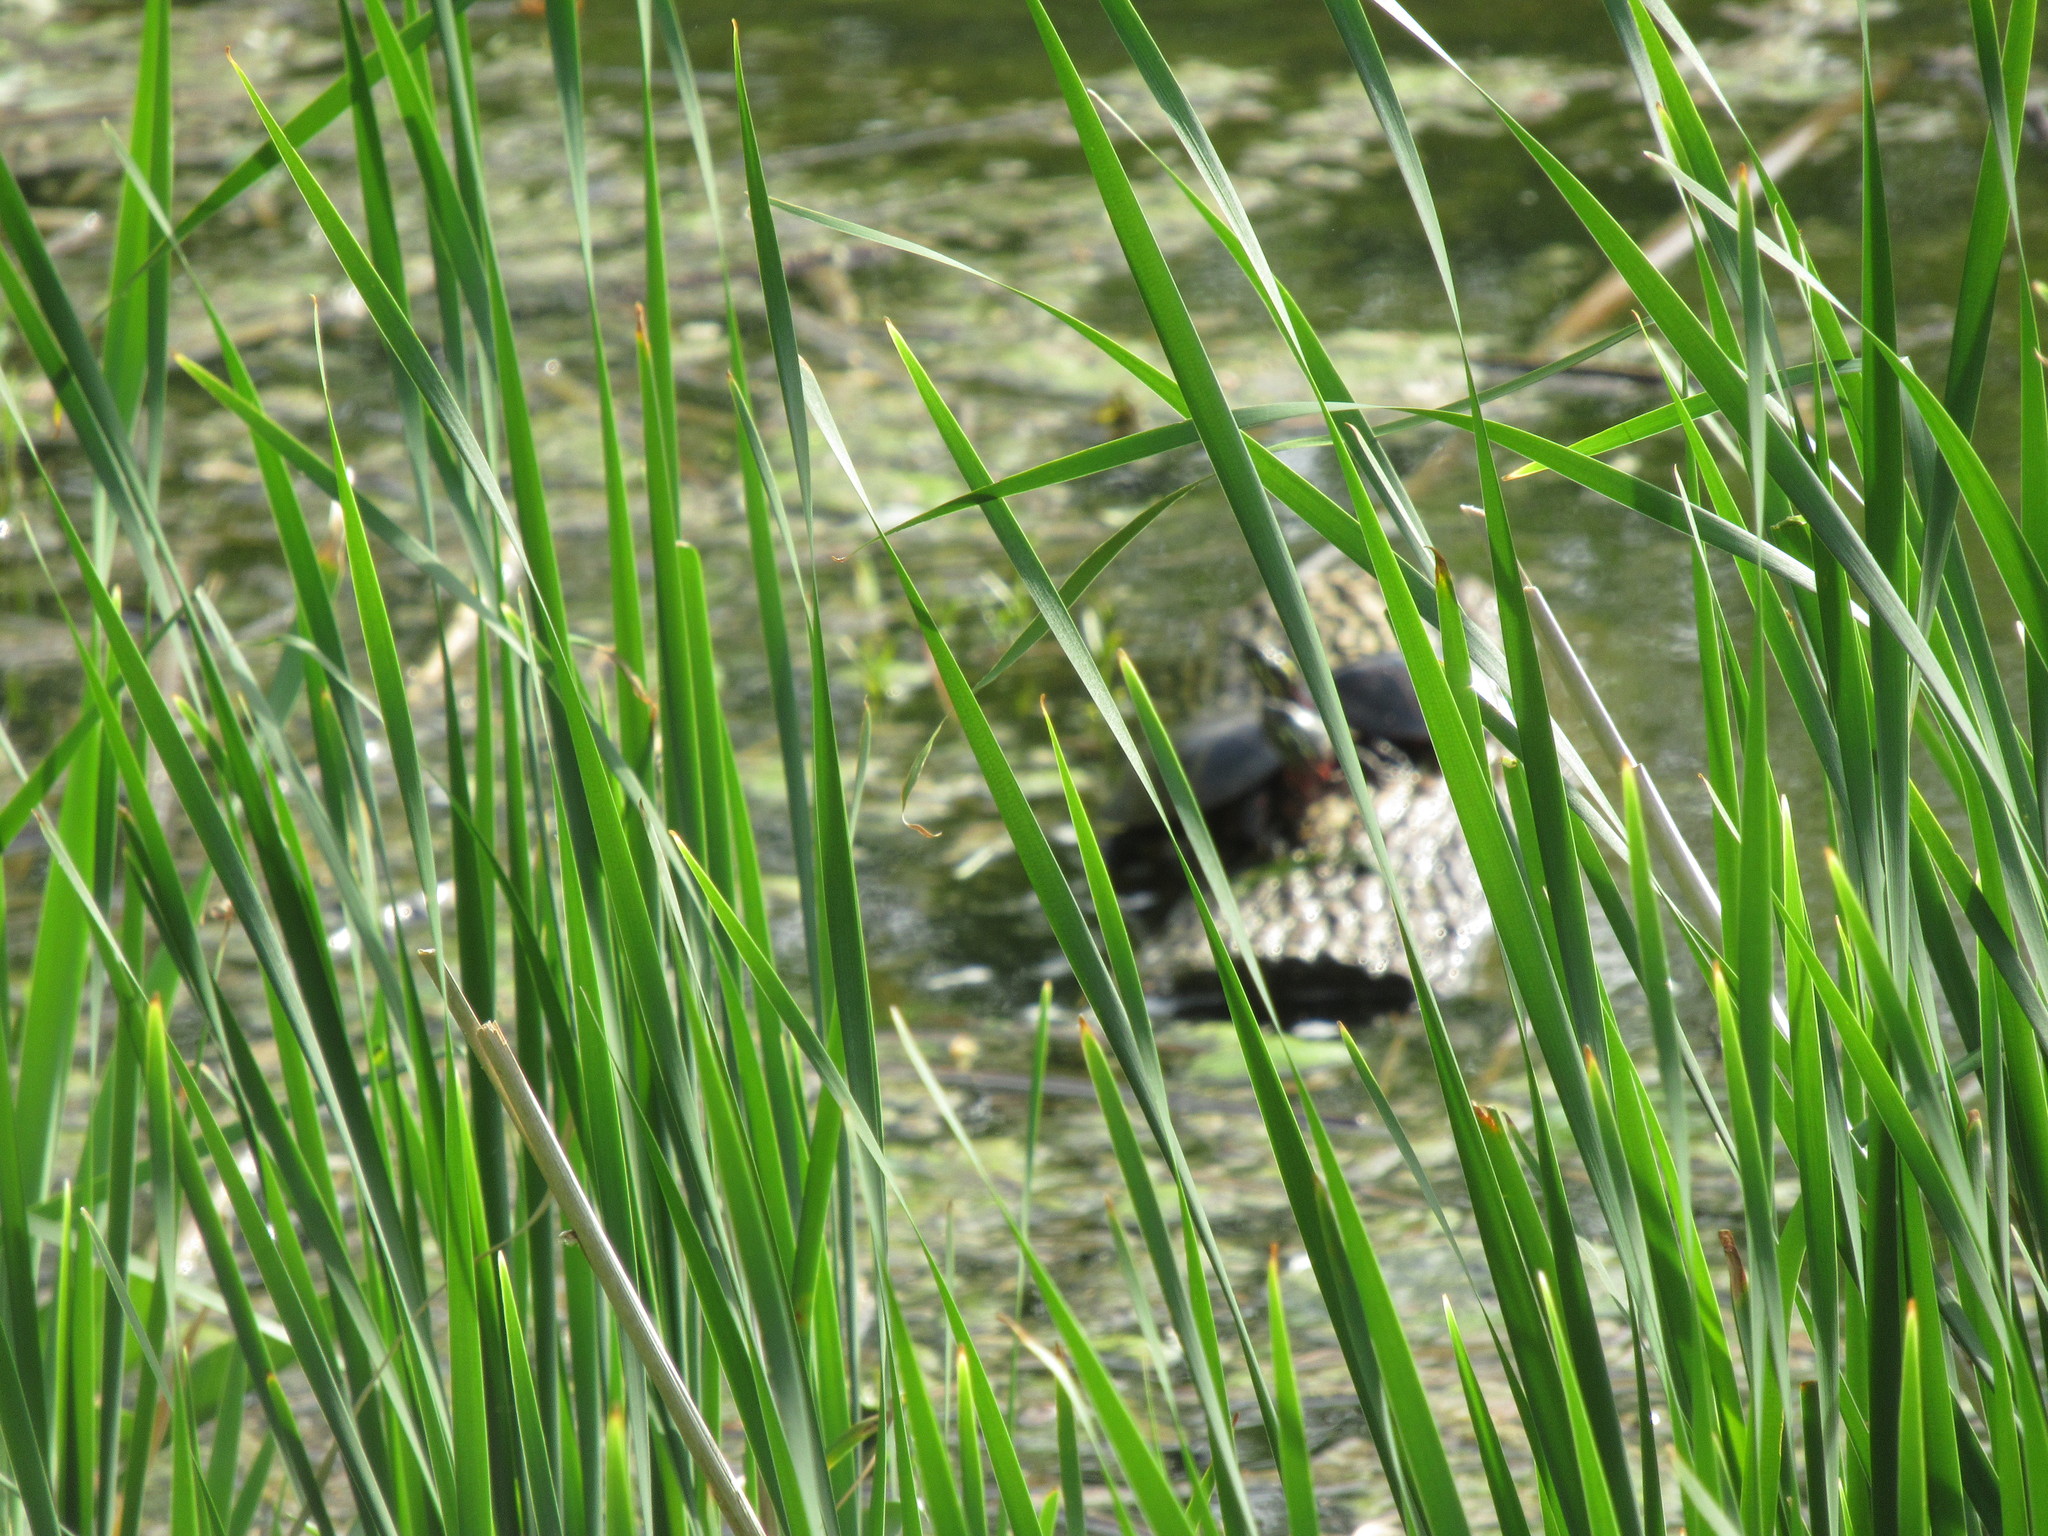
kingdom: Animalia
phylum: Chordata
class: Testudines
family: Emydidae
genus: Chrysemys
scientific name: Chrysemys picta
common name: Painted turtle
